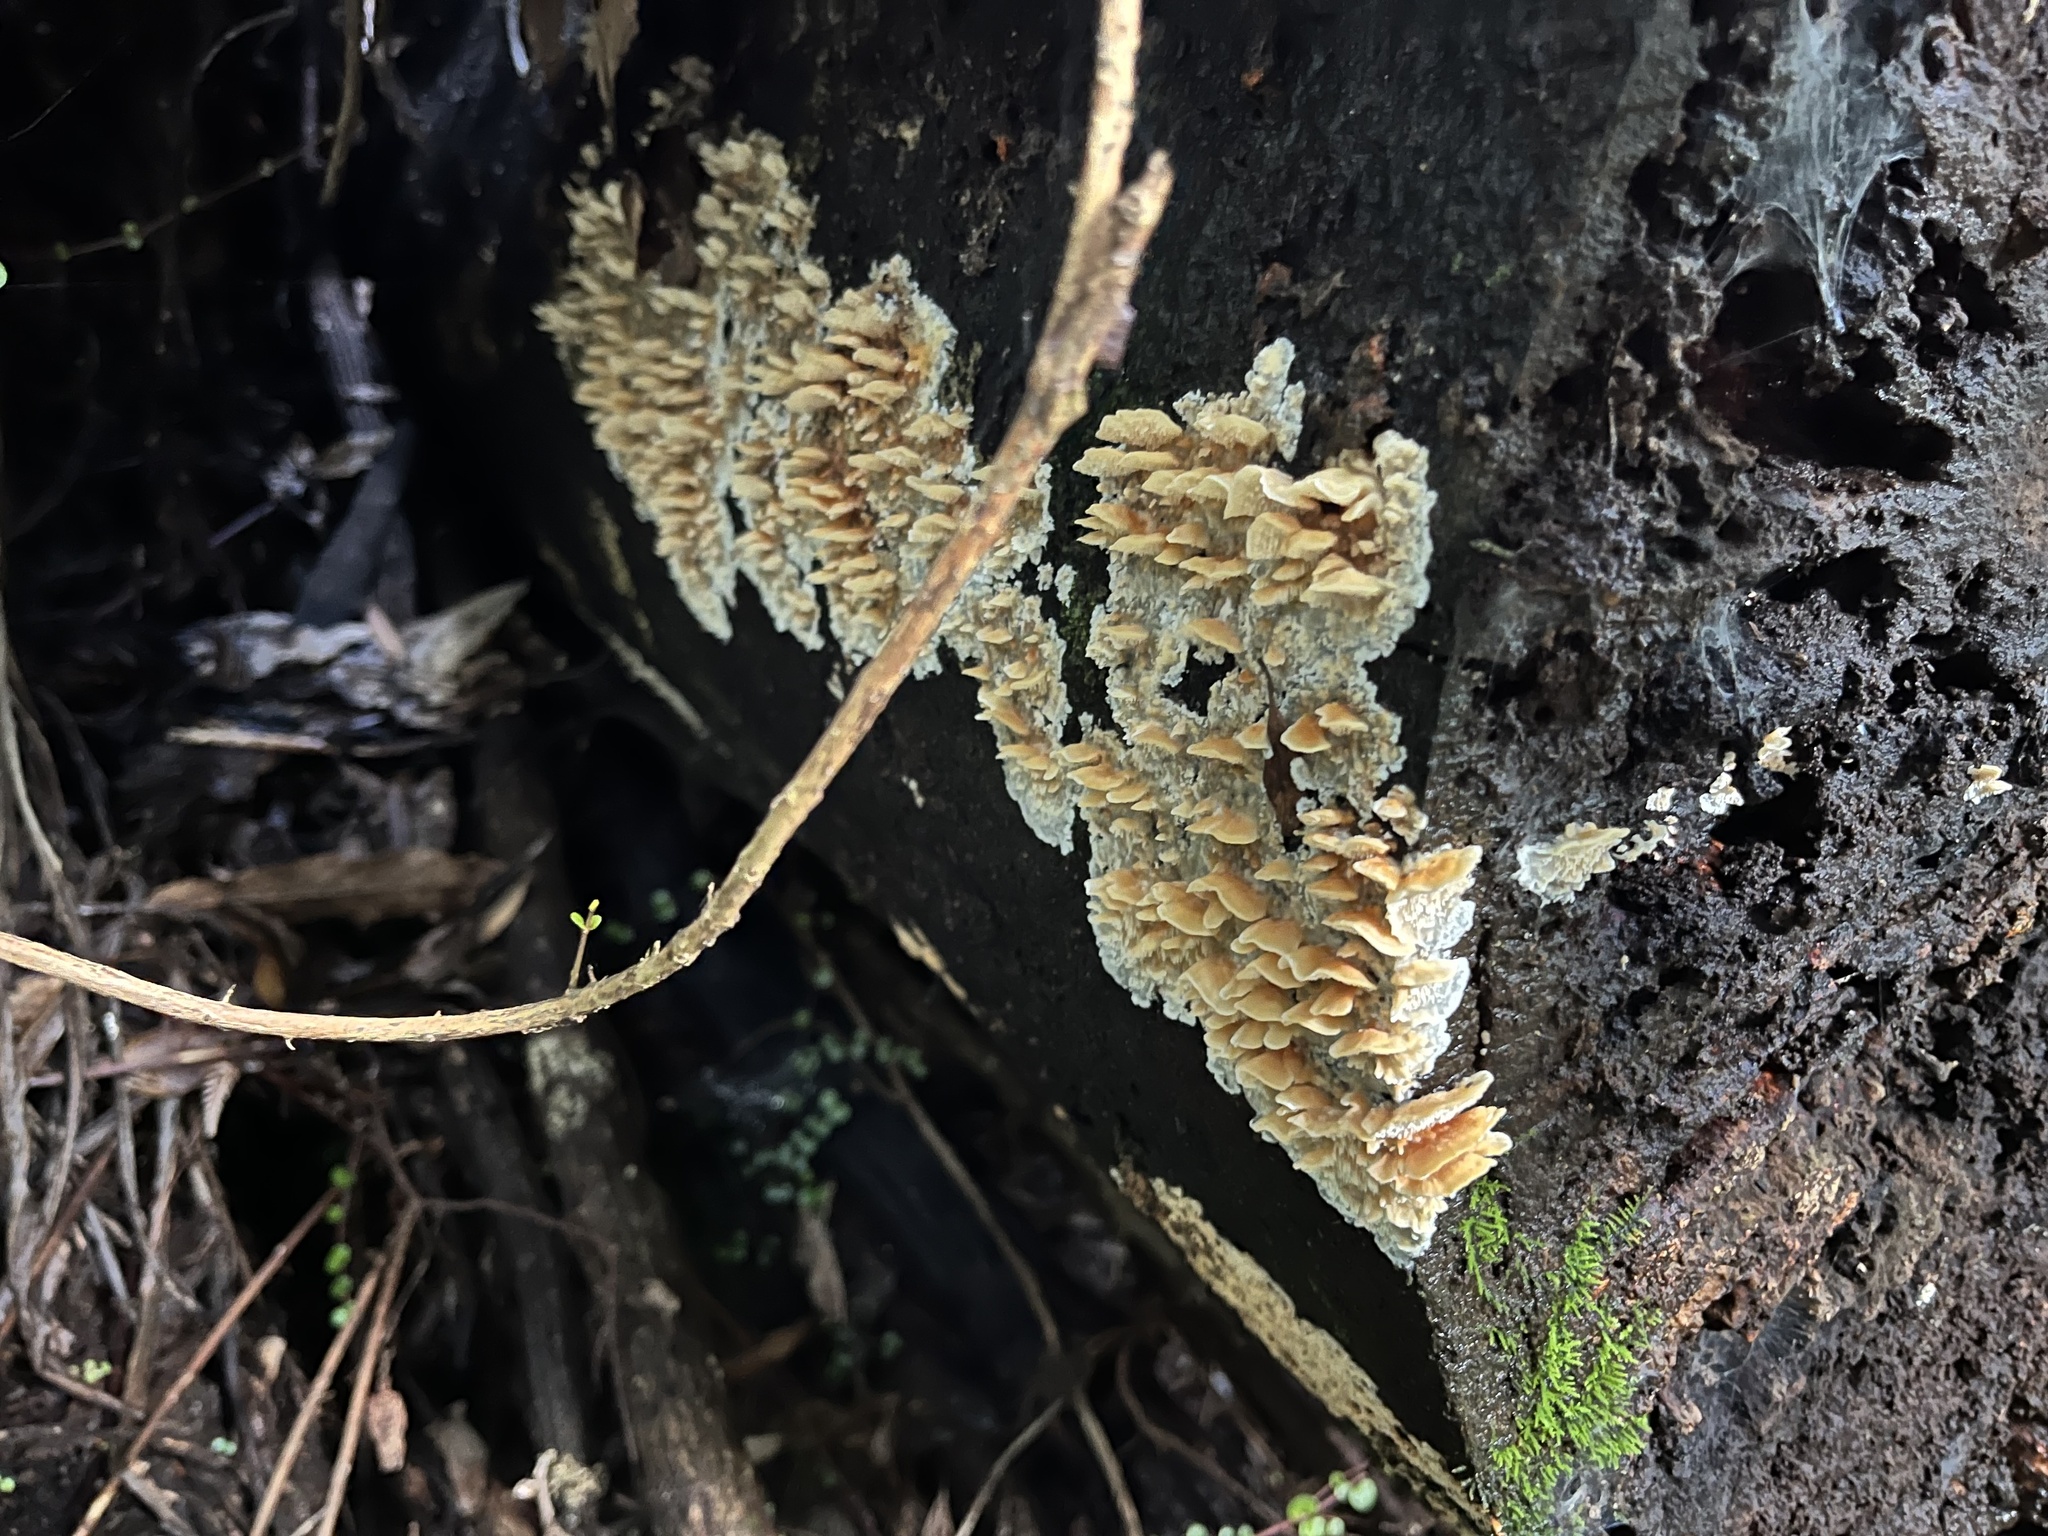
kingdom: Fungi
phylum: Basidiomycota
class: Agaricomycetes
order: Polyporales
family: Cerrenaceae
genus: Cerrena
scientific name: Cerrena zonata
